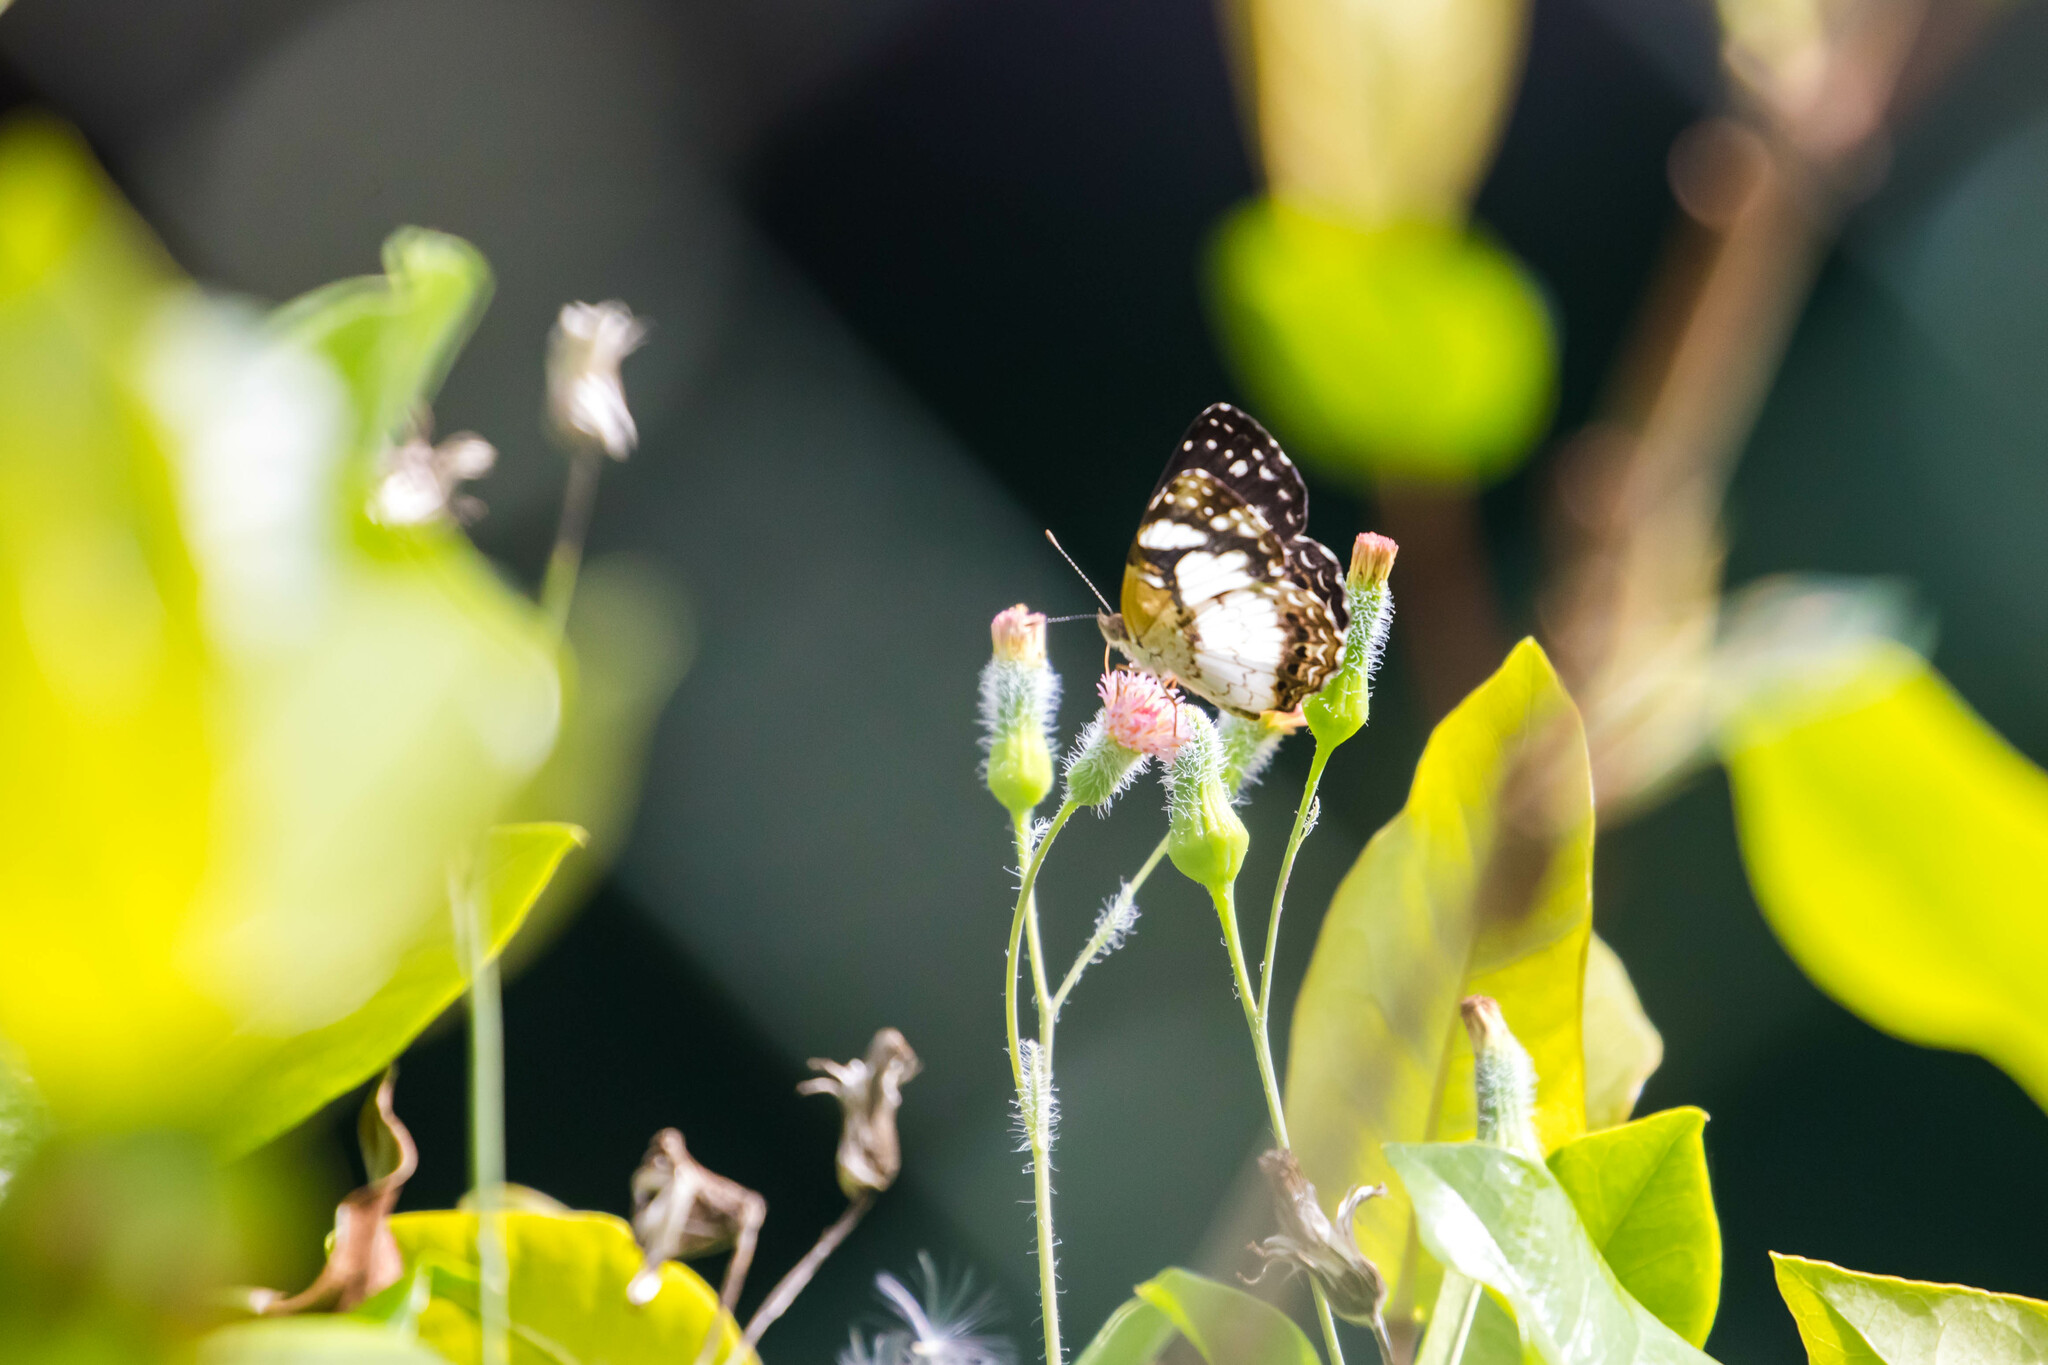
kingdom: Animalia
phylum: Arthropoda
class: Insecta
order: Lepidoptera
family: Nymphalidae
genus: Janatella
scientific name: Janatella leucodesma
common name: Whitened crescent
